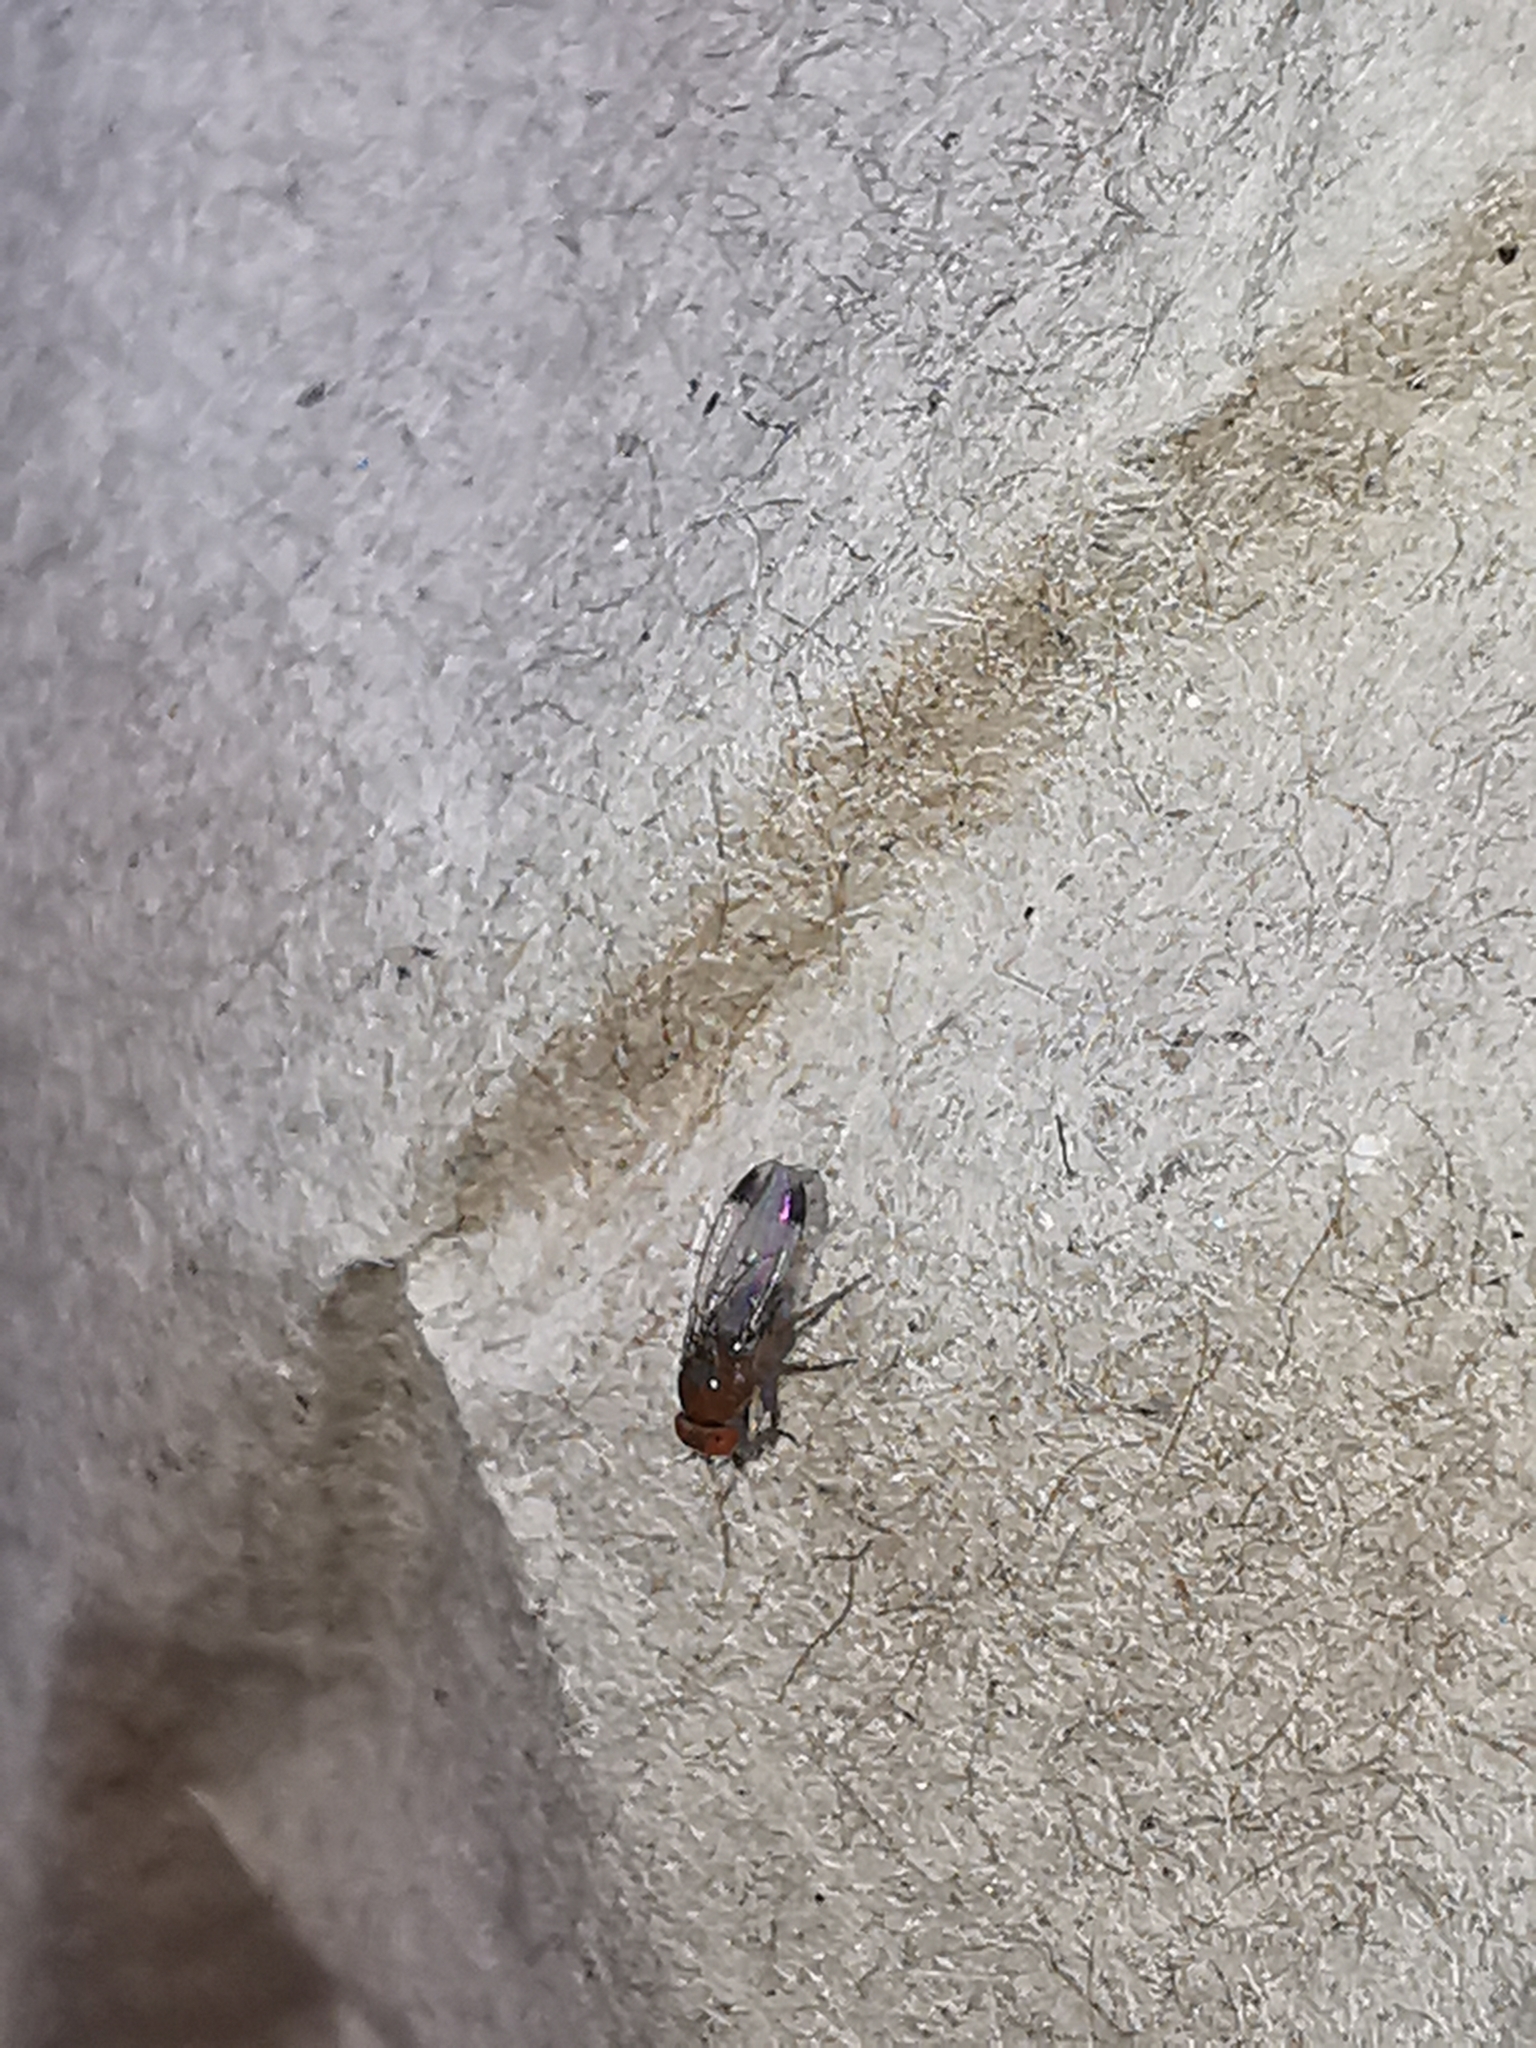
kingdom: Animalia
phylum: Arthropoda
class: Insecta
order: Diptera
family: Drosophilidae
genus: Drosophila
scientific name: Drosophila suzukii
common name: Spotted-wing drosophila
